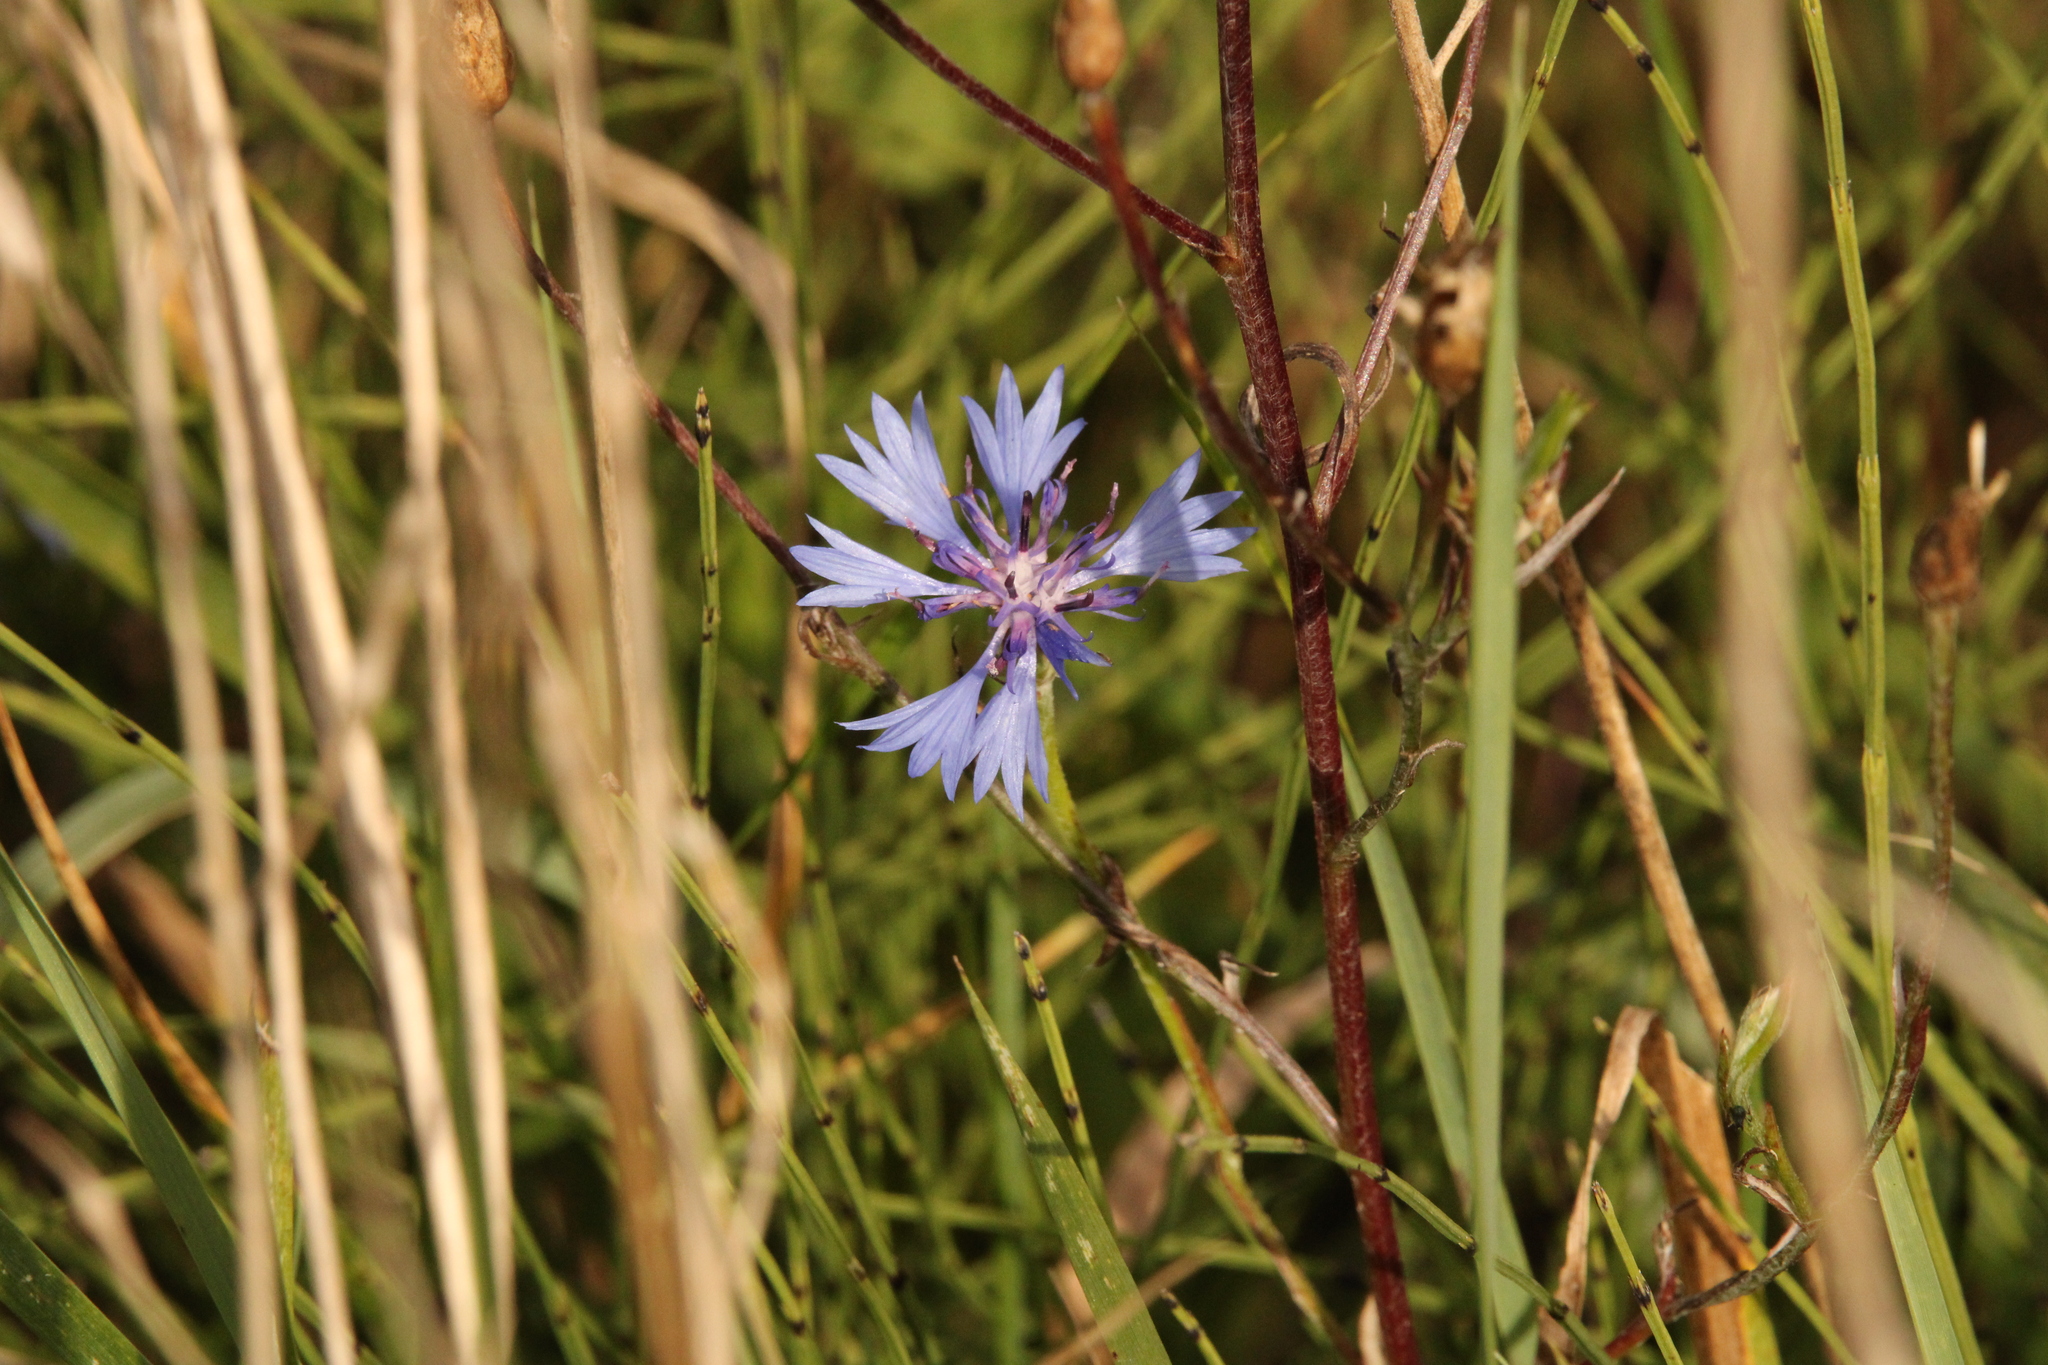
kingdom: Plantae
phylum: Tracheophyta
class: Magnoliopsida
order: Asterales
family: Asteraceae
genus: Centaurea
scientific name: Centaurea cyanus
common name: Cornflower
